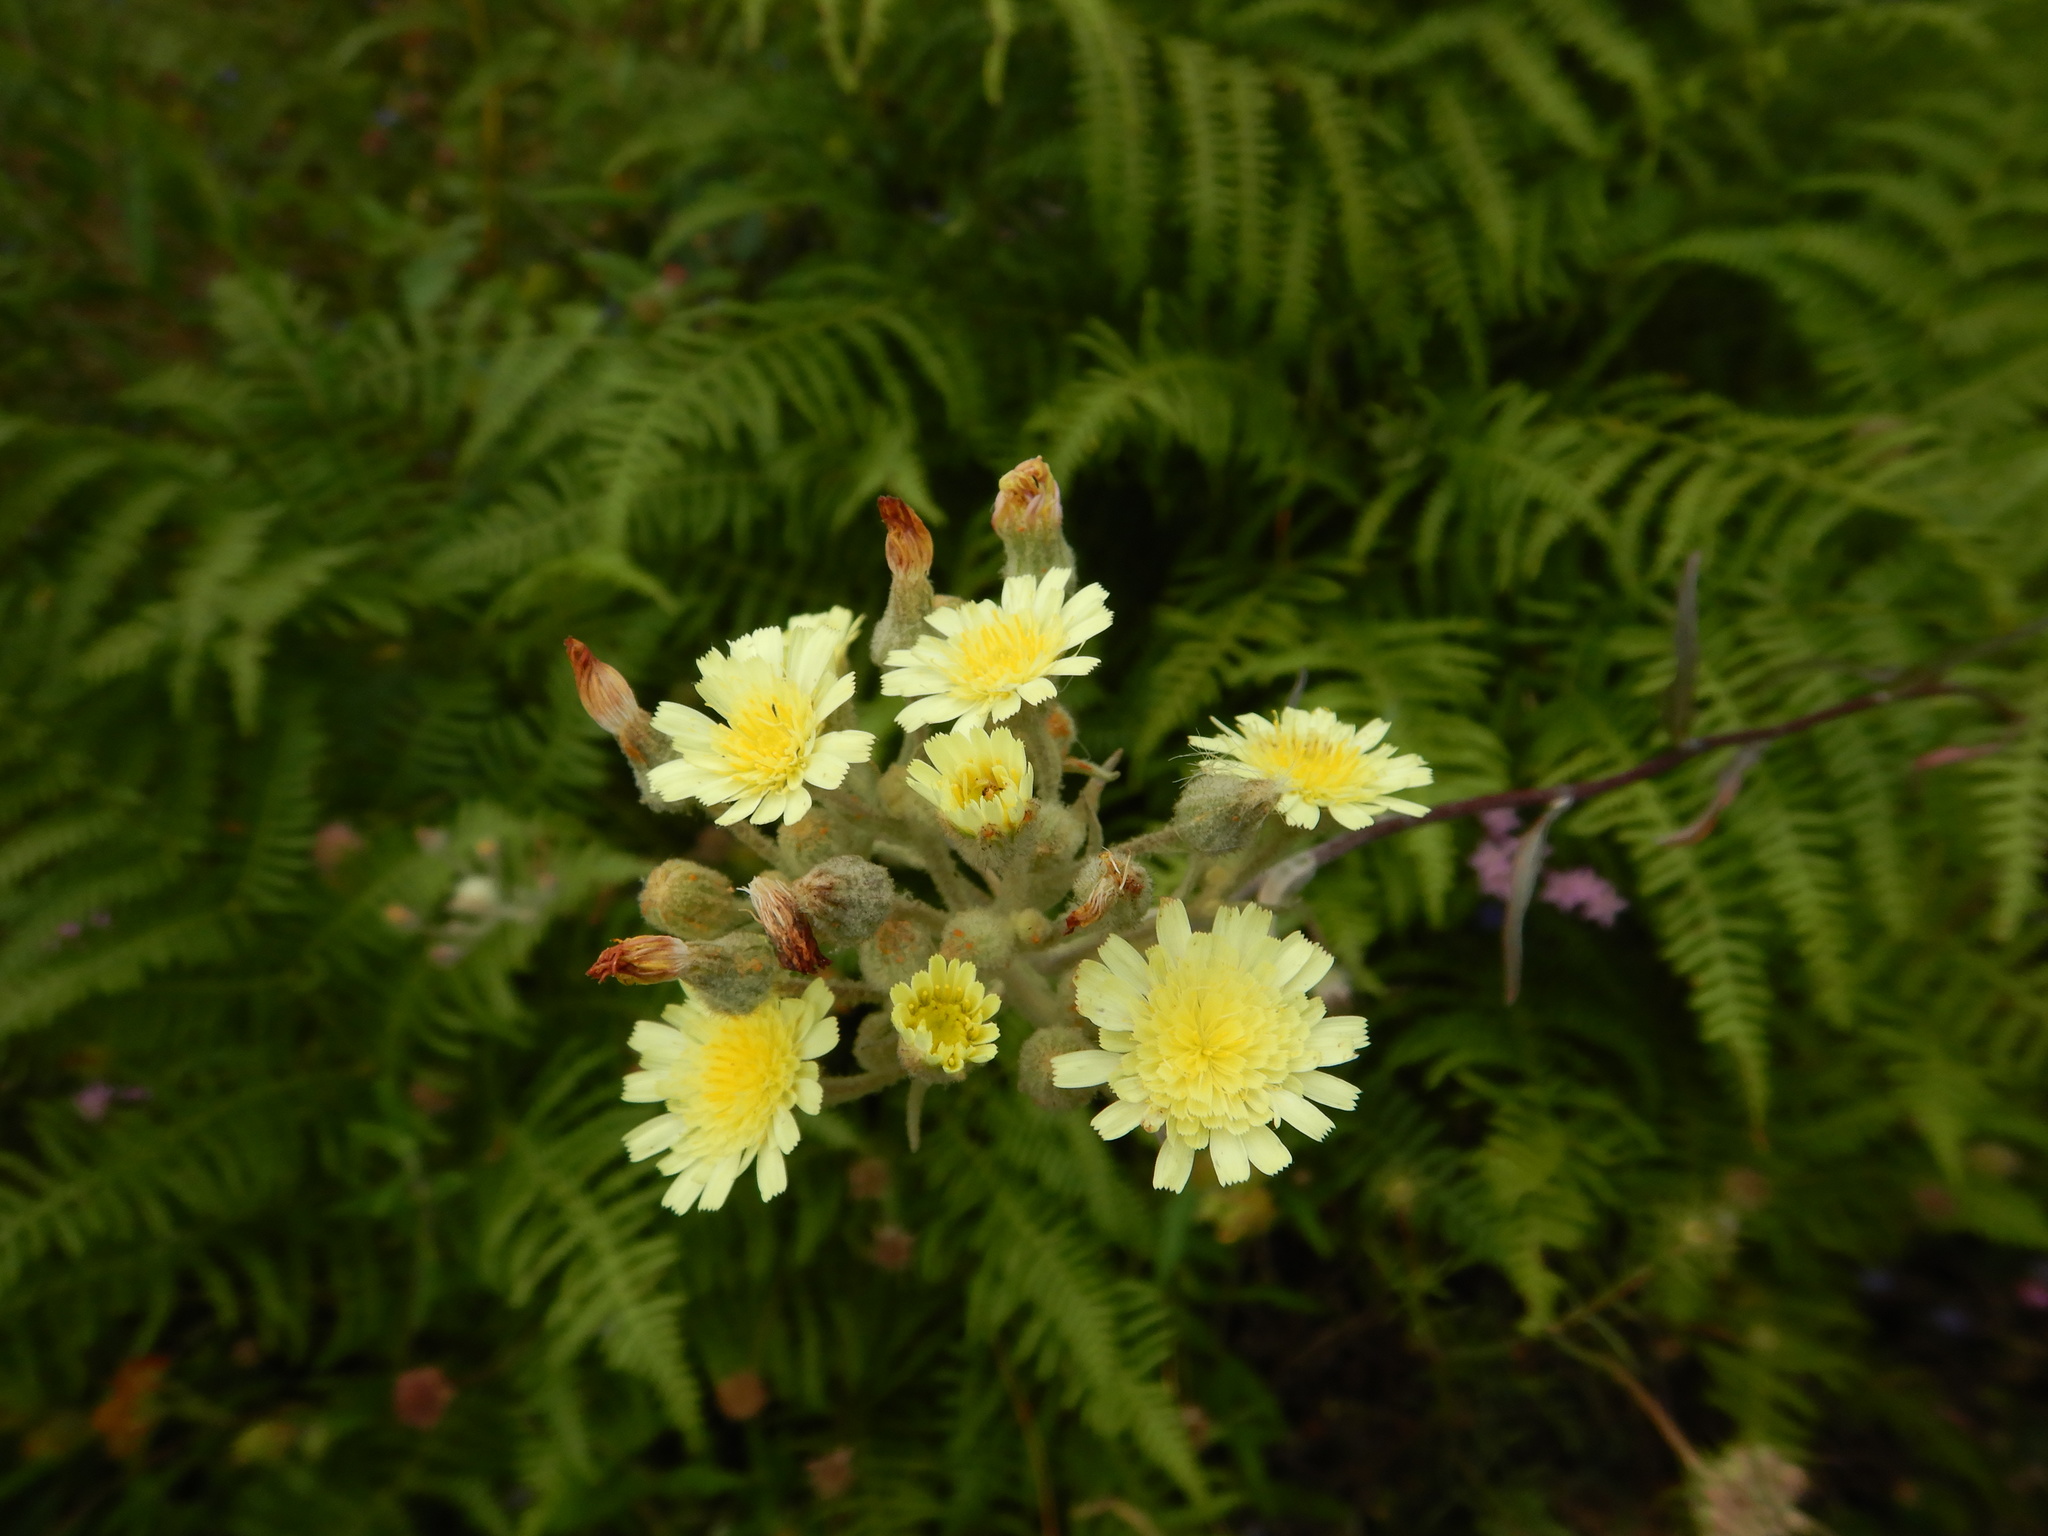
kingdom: Plantae
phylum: Tracheophyta
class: Magnoliopsida
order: Asterales
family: Asteraceae
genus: Andryala
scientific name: Andryala integrifolia
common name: Common andryala
